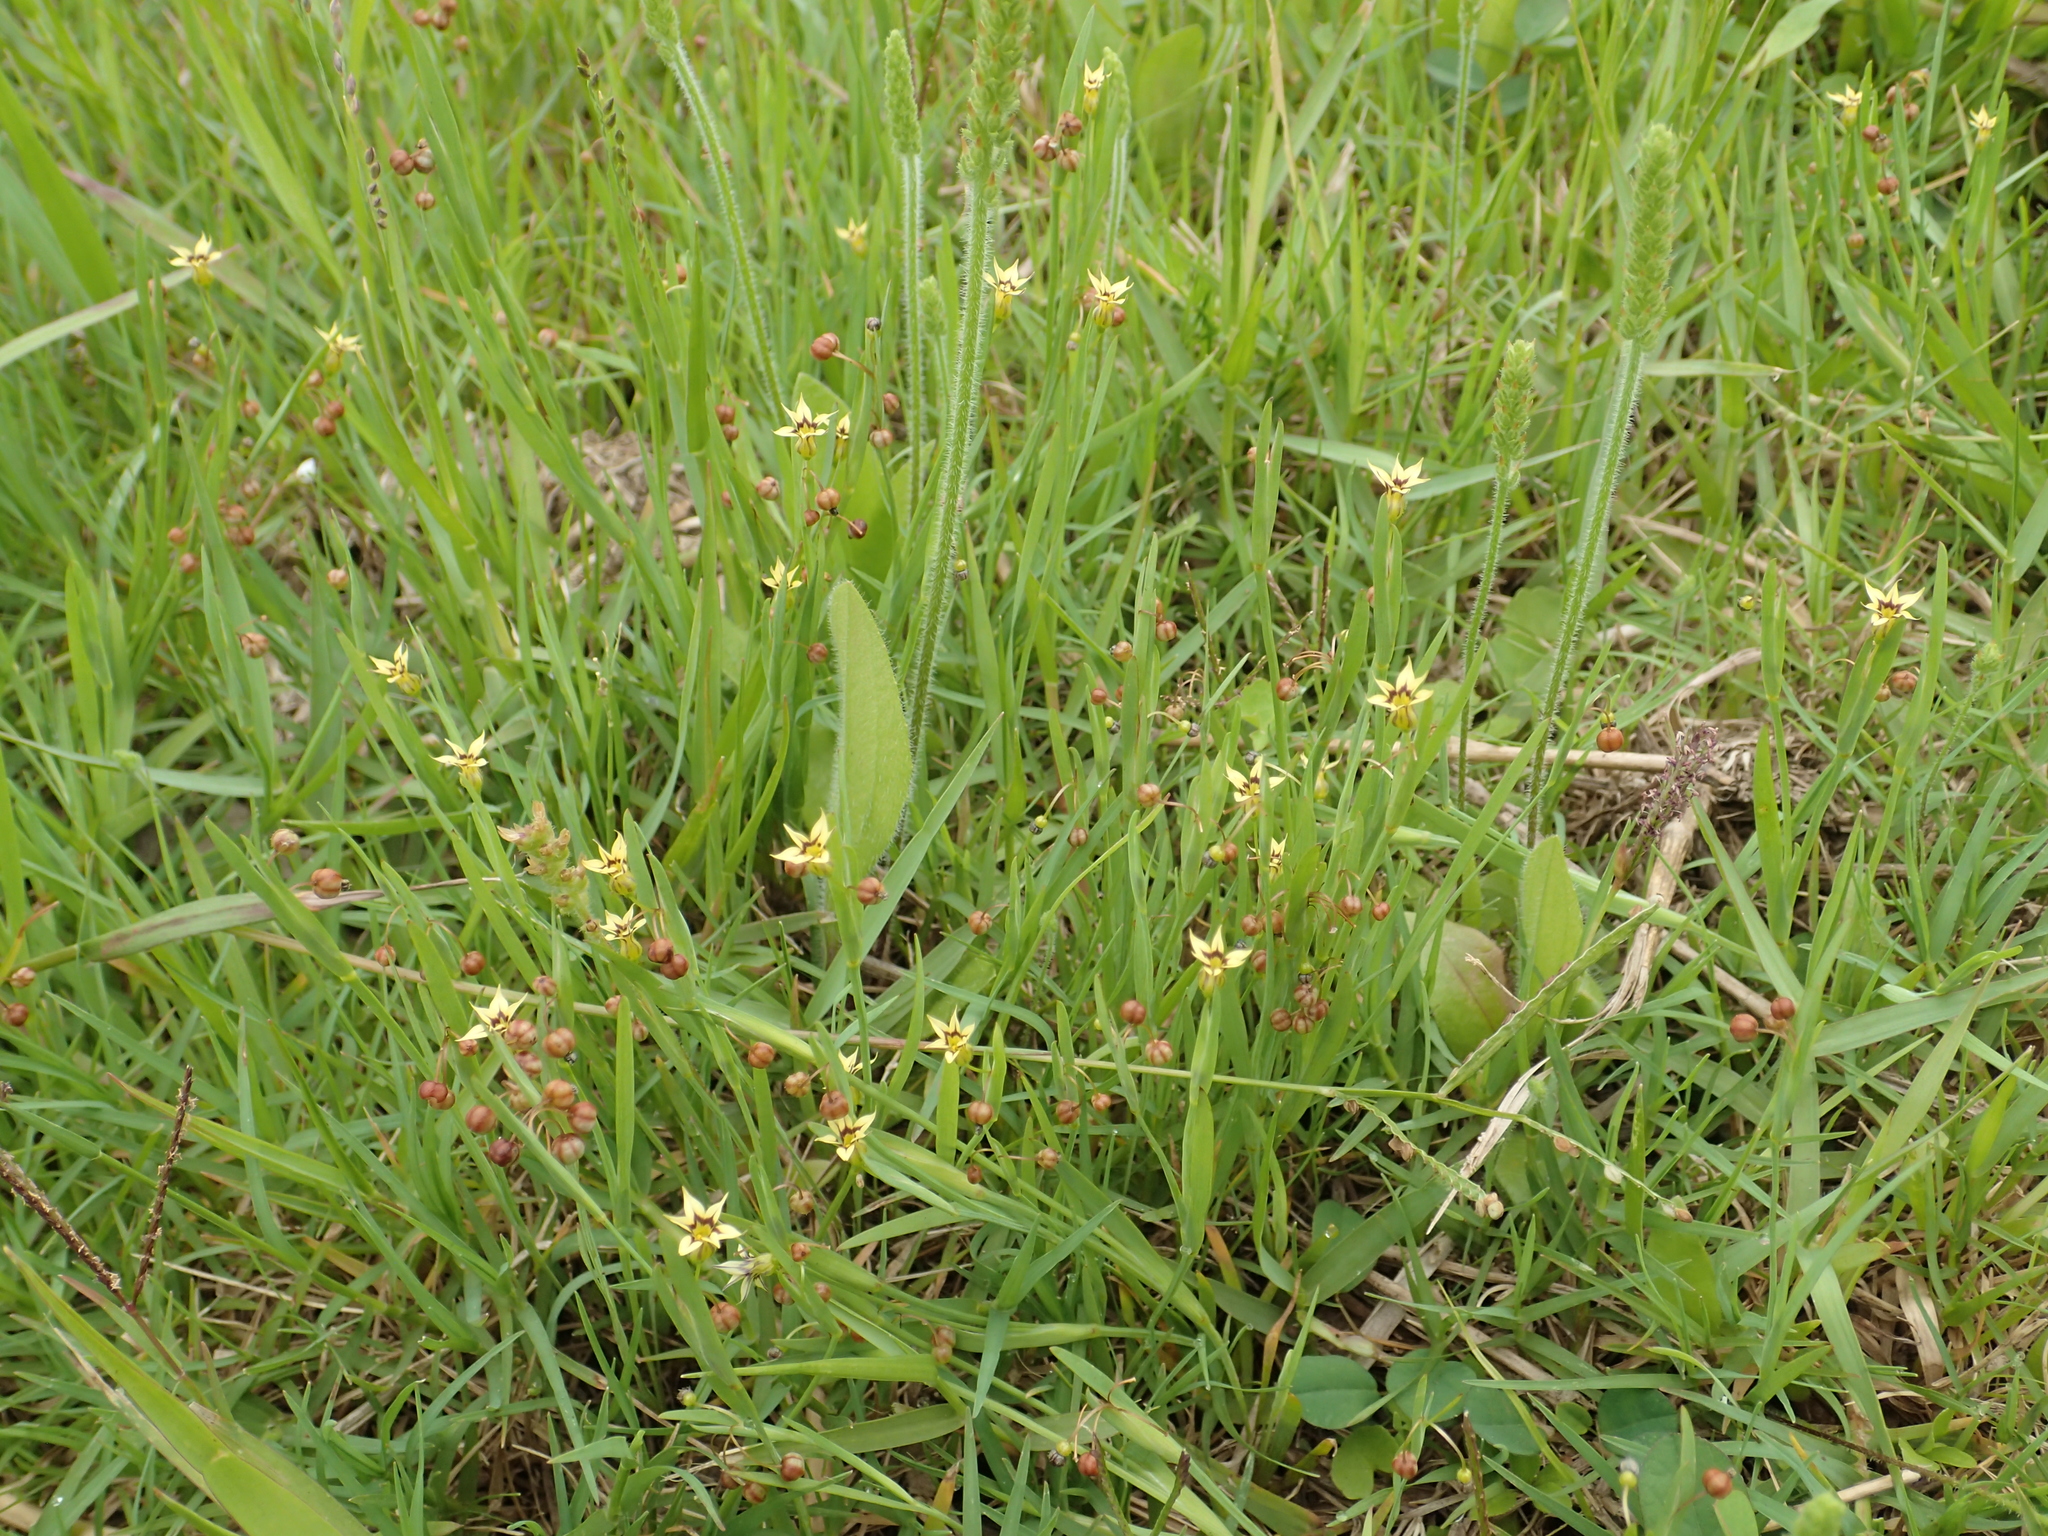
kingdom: Plantae
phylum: Tracheophyta
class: Liliopsida
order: Asparagales
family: Iridaceae
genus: Sisyrinchium
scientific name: Sisyrinchium micranthum
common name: Bermuda pigroot
